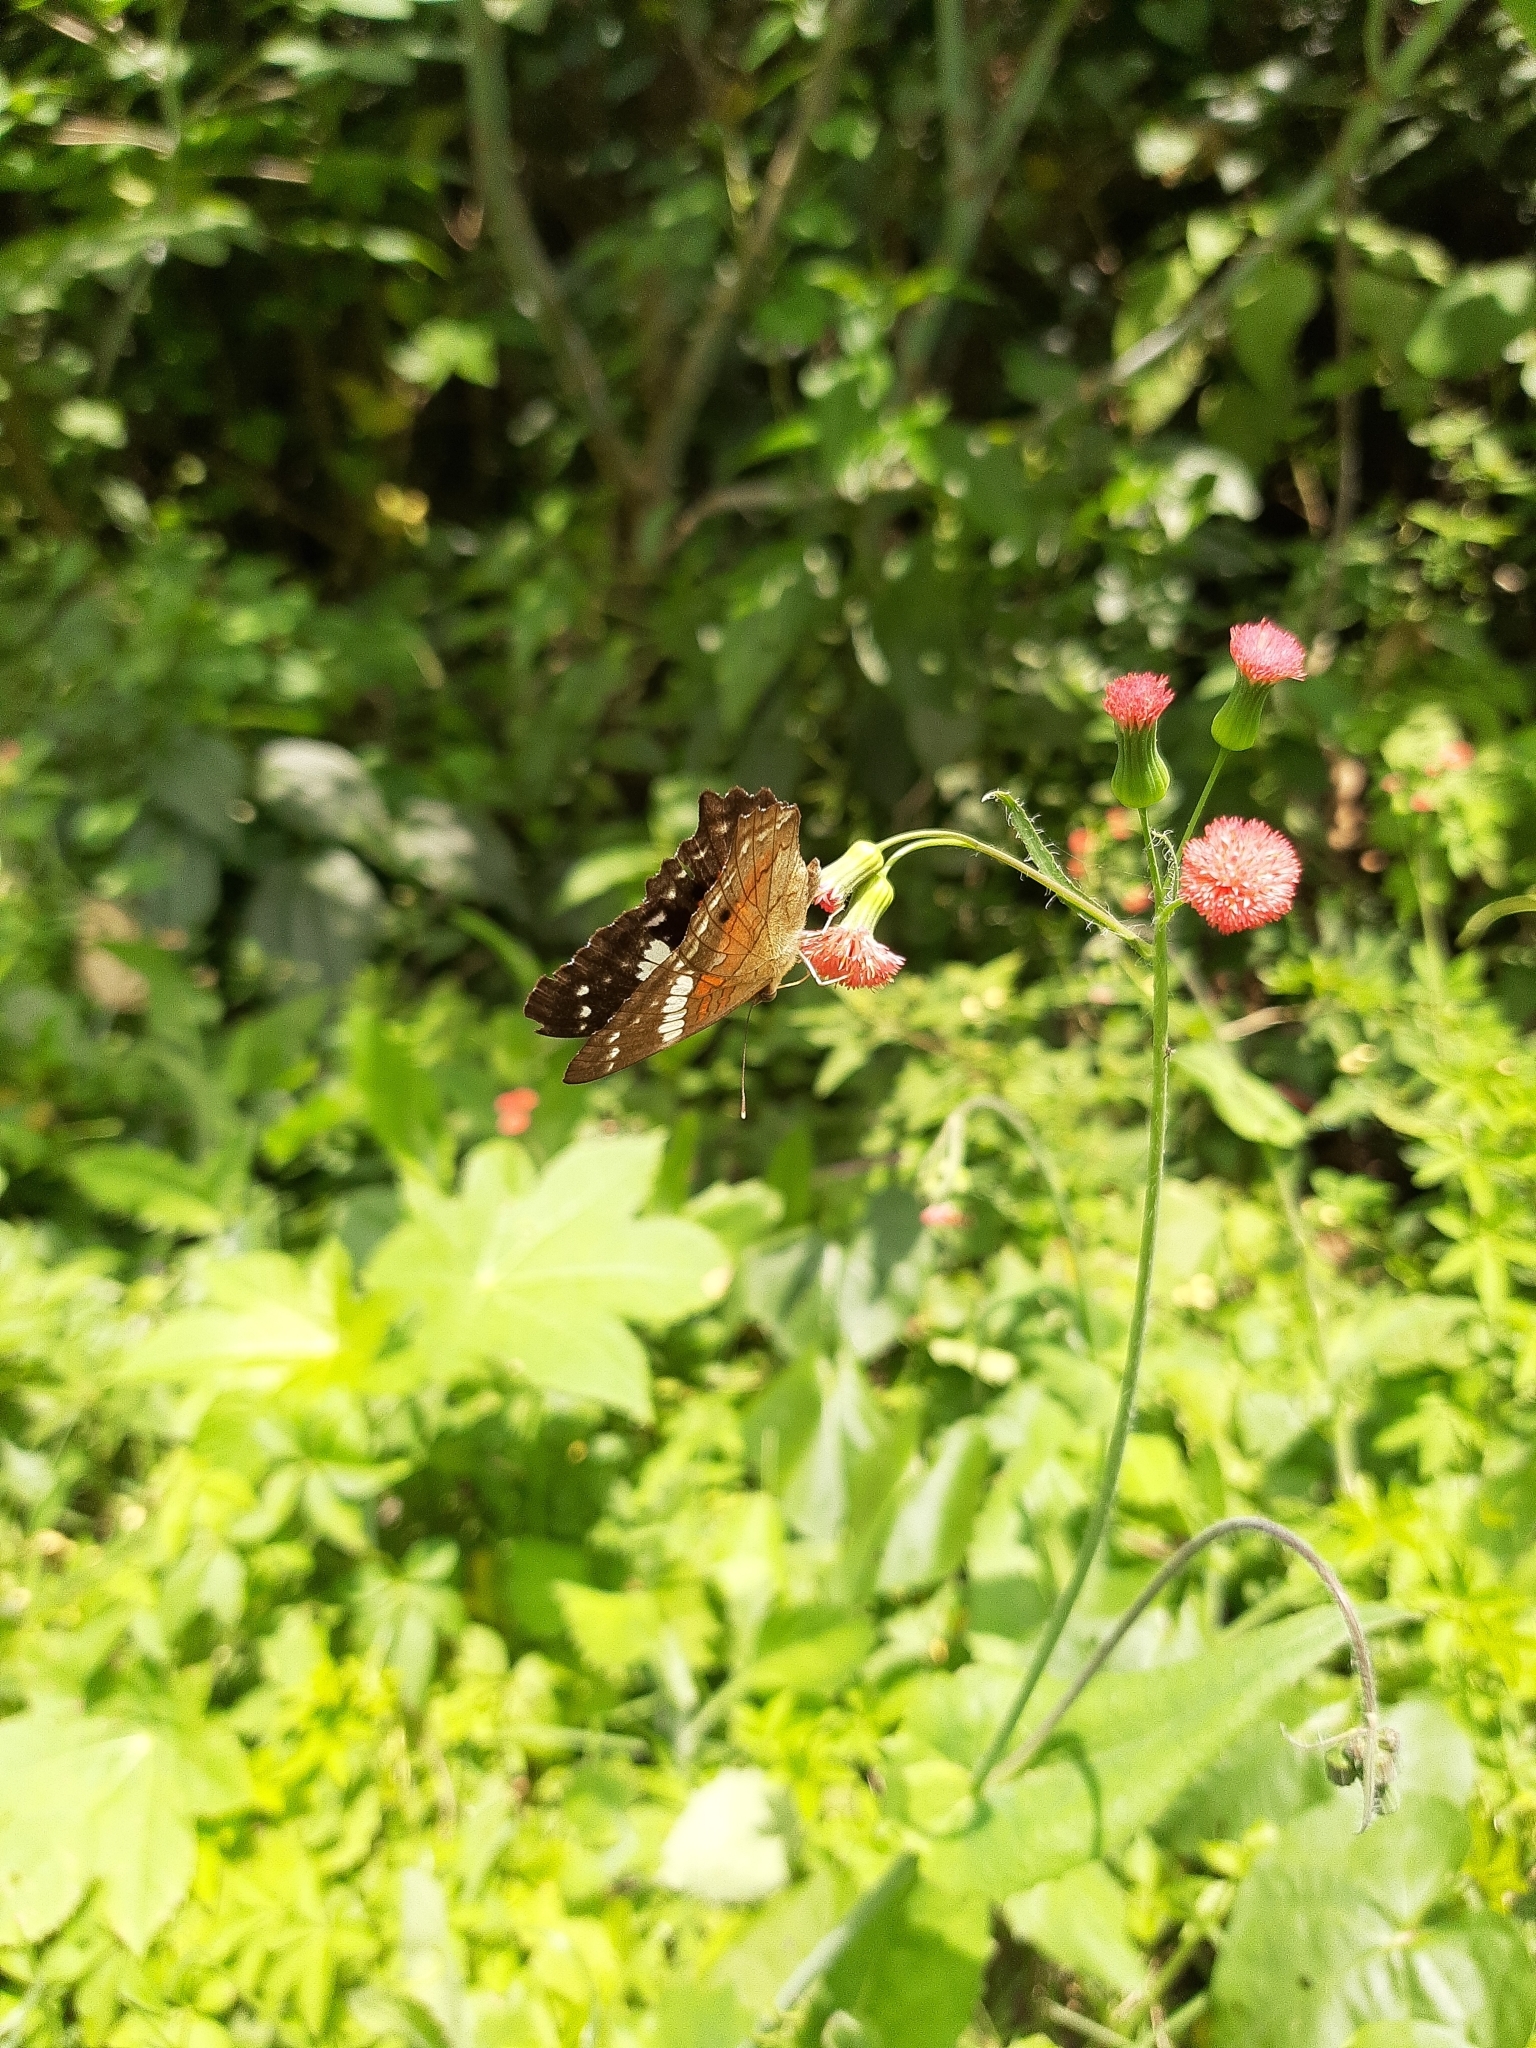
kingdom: Animalia
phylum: Arthropoda
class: Insecta
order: Lepidoptera
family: Nymphalidae
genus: Anartia
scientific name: Anartia amathea
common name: Red peacock
